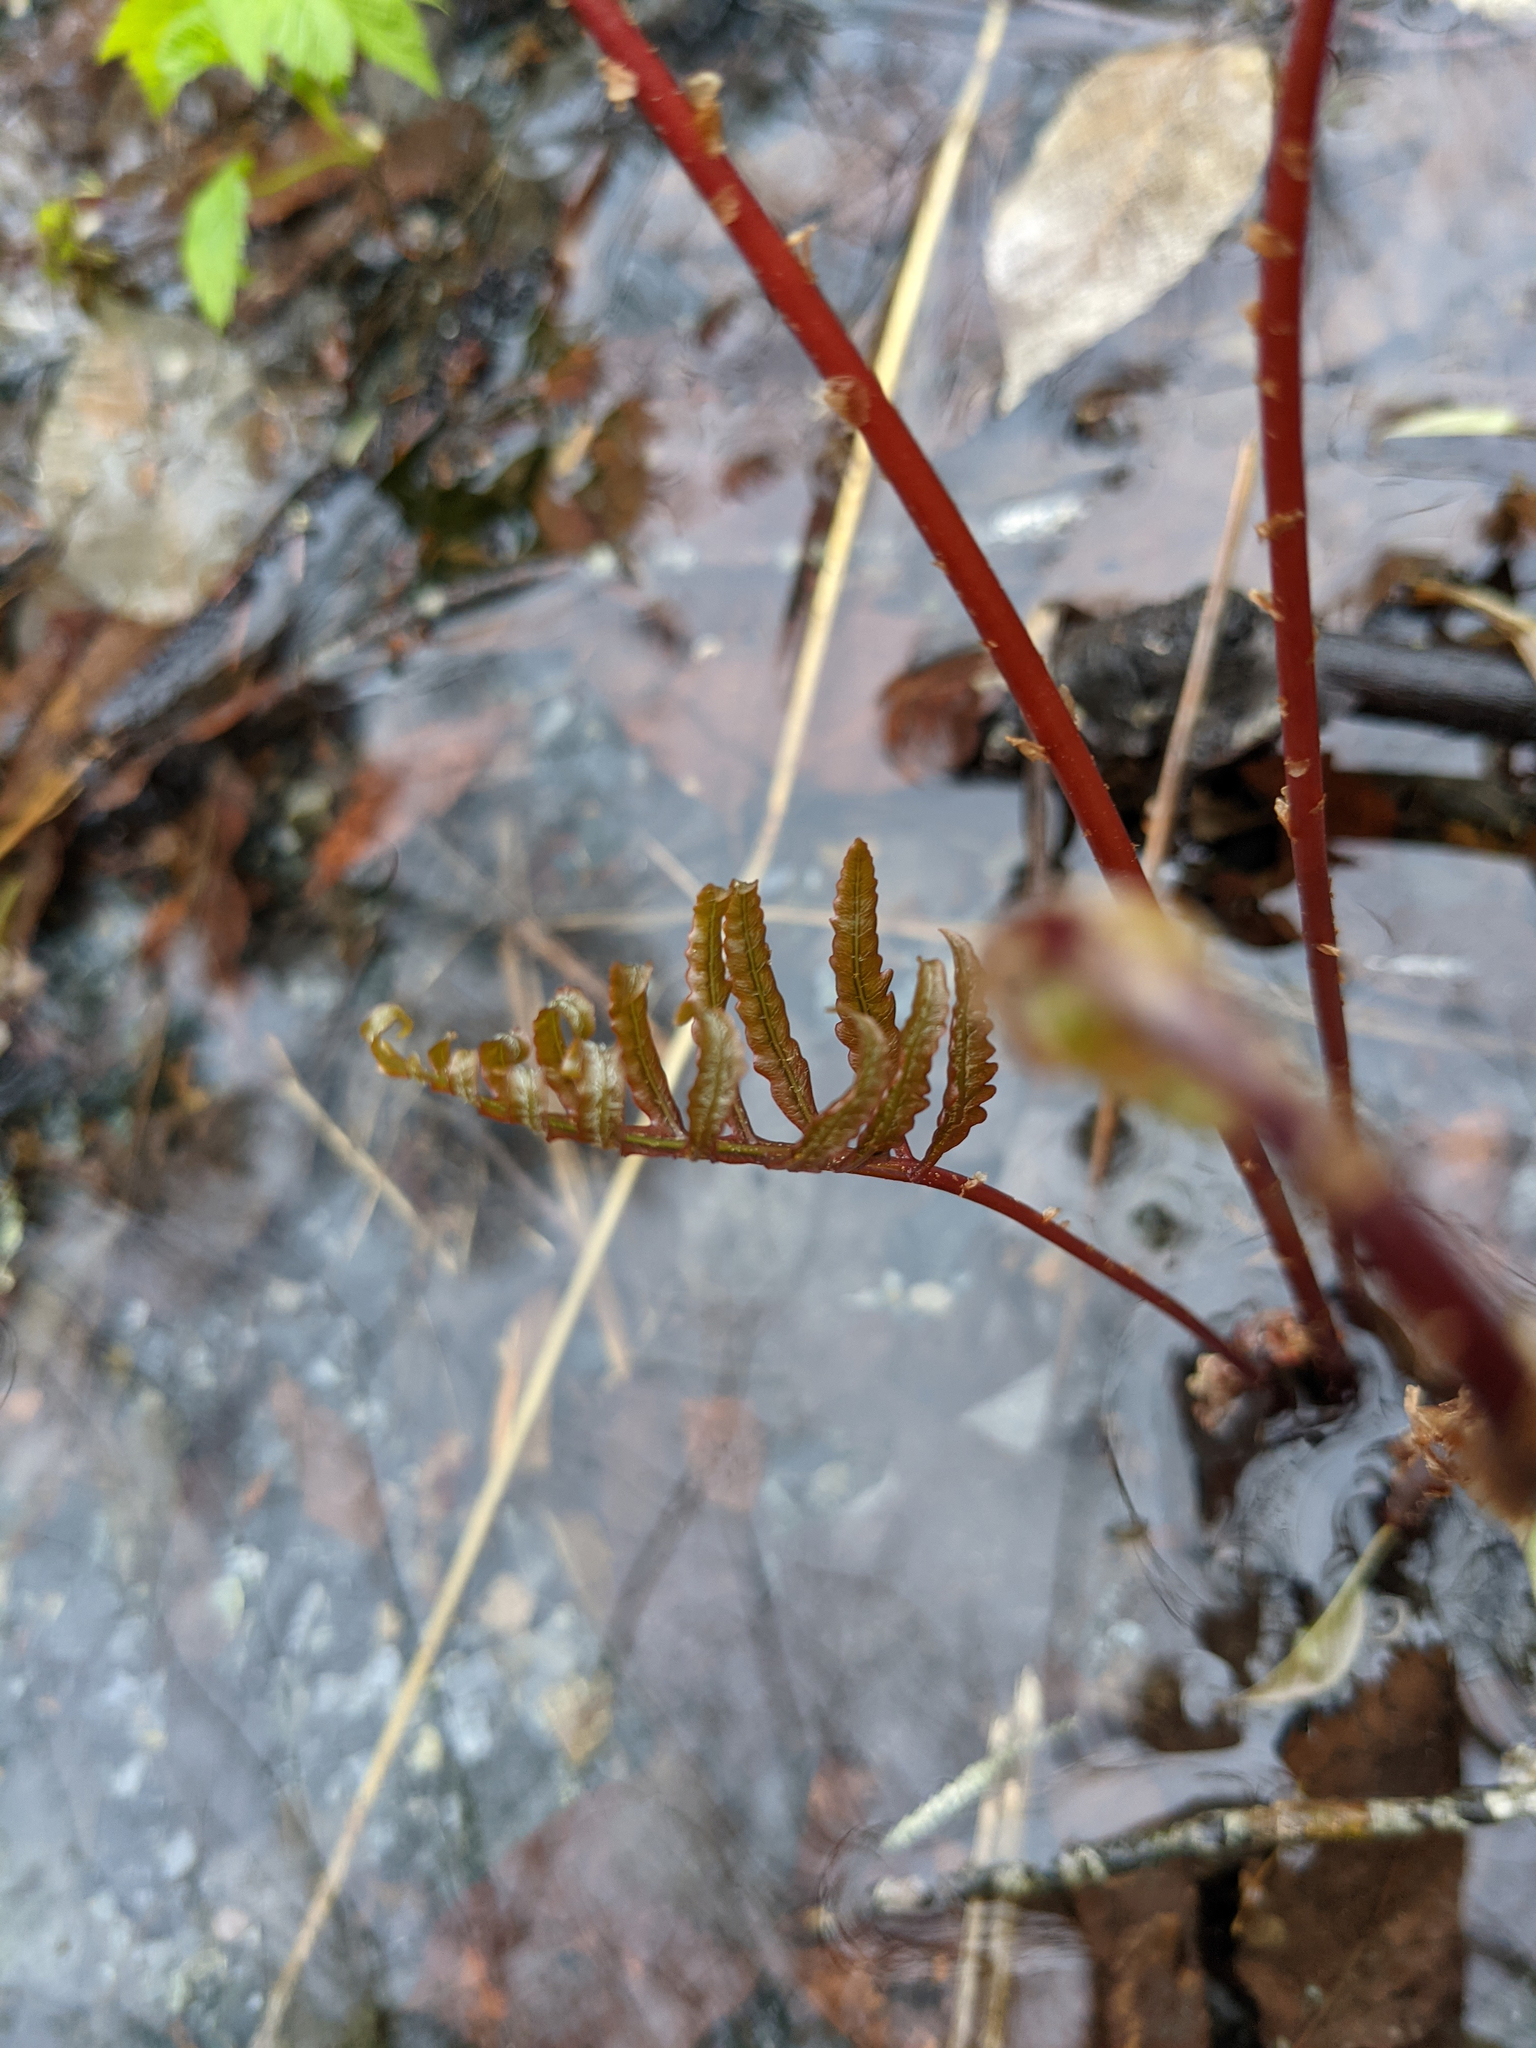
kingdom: Plantae
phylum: Tracheophyta
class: Polypodiopsida
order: Polypodiales
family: Onocleaceae
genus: Onoclea
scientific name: Onoclea sensibilis
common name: Sensitive fern
